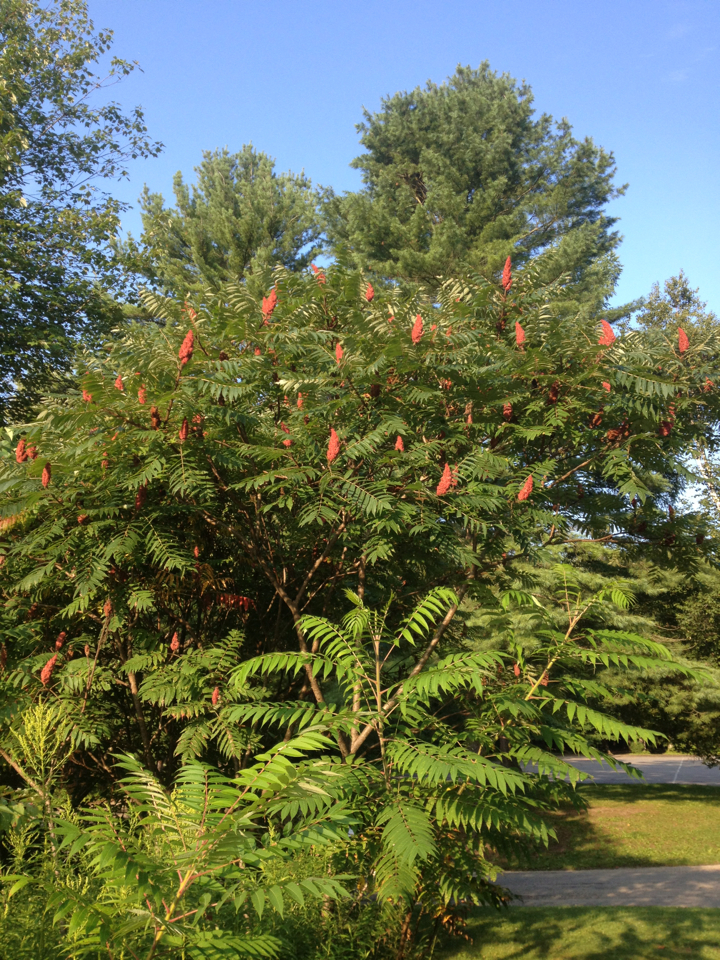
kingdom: Plantae
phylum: Tracheophyta
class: Magnoliopsida
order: Sapindales
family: Anacardiaceae
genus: Rhus
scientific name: Rhus typhina
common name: Staghorn sumac
